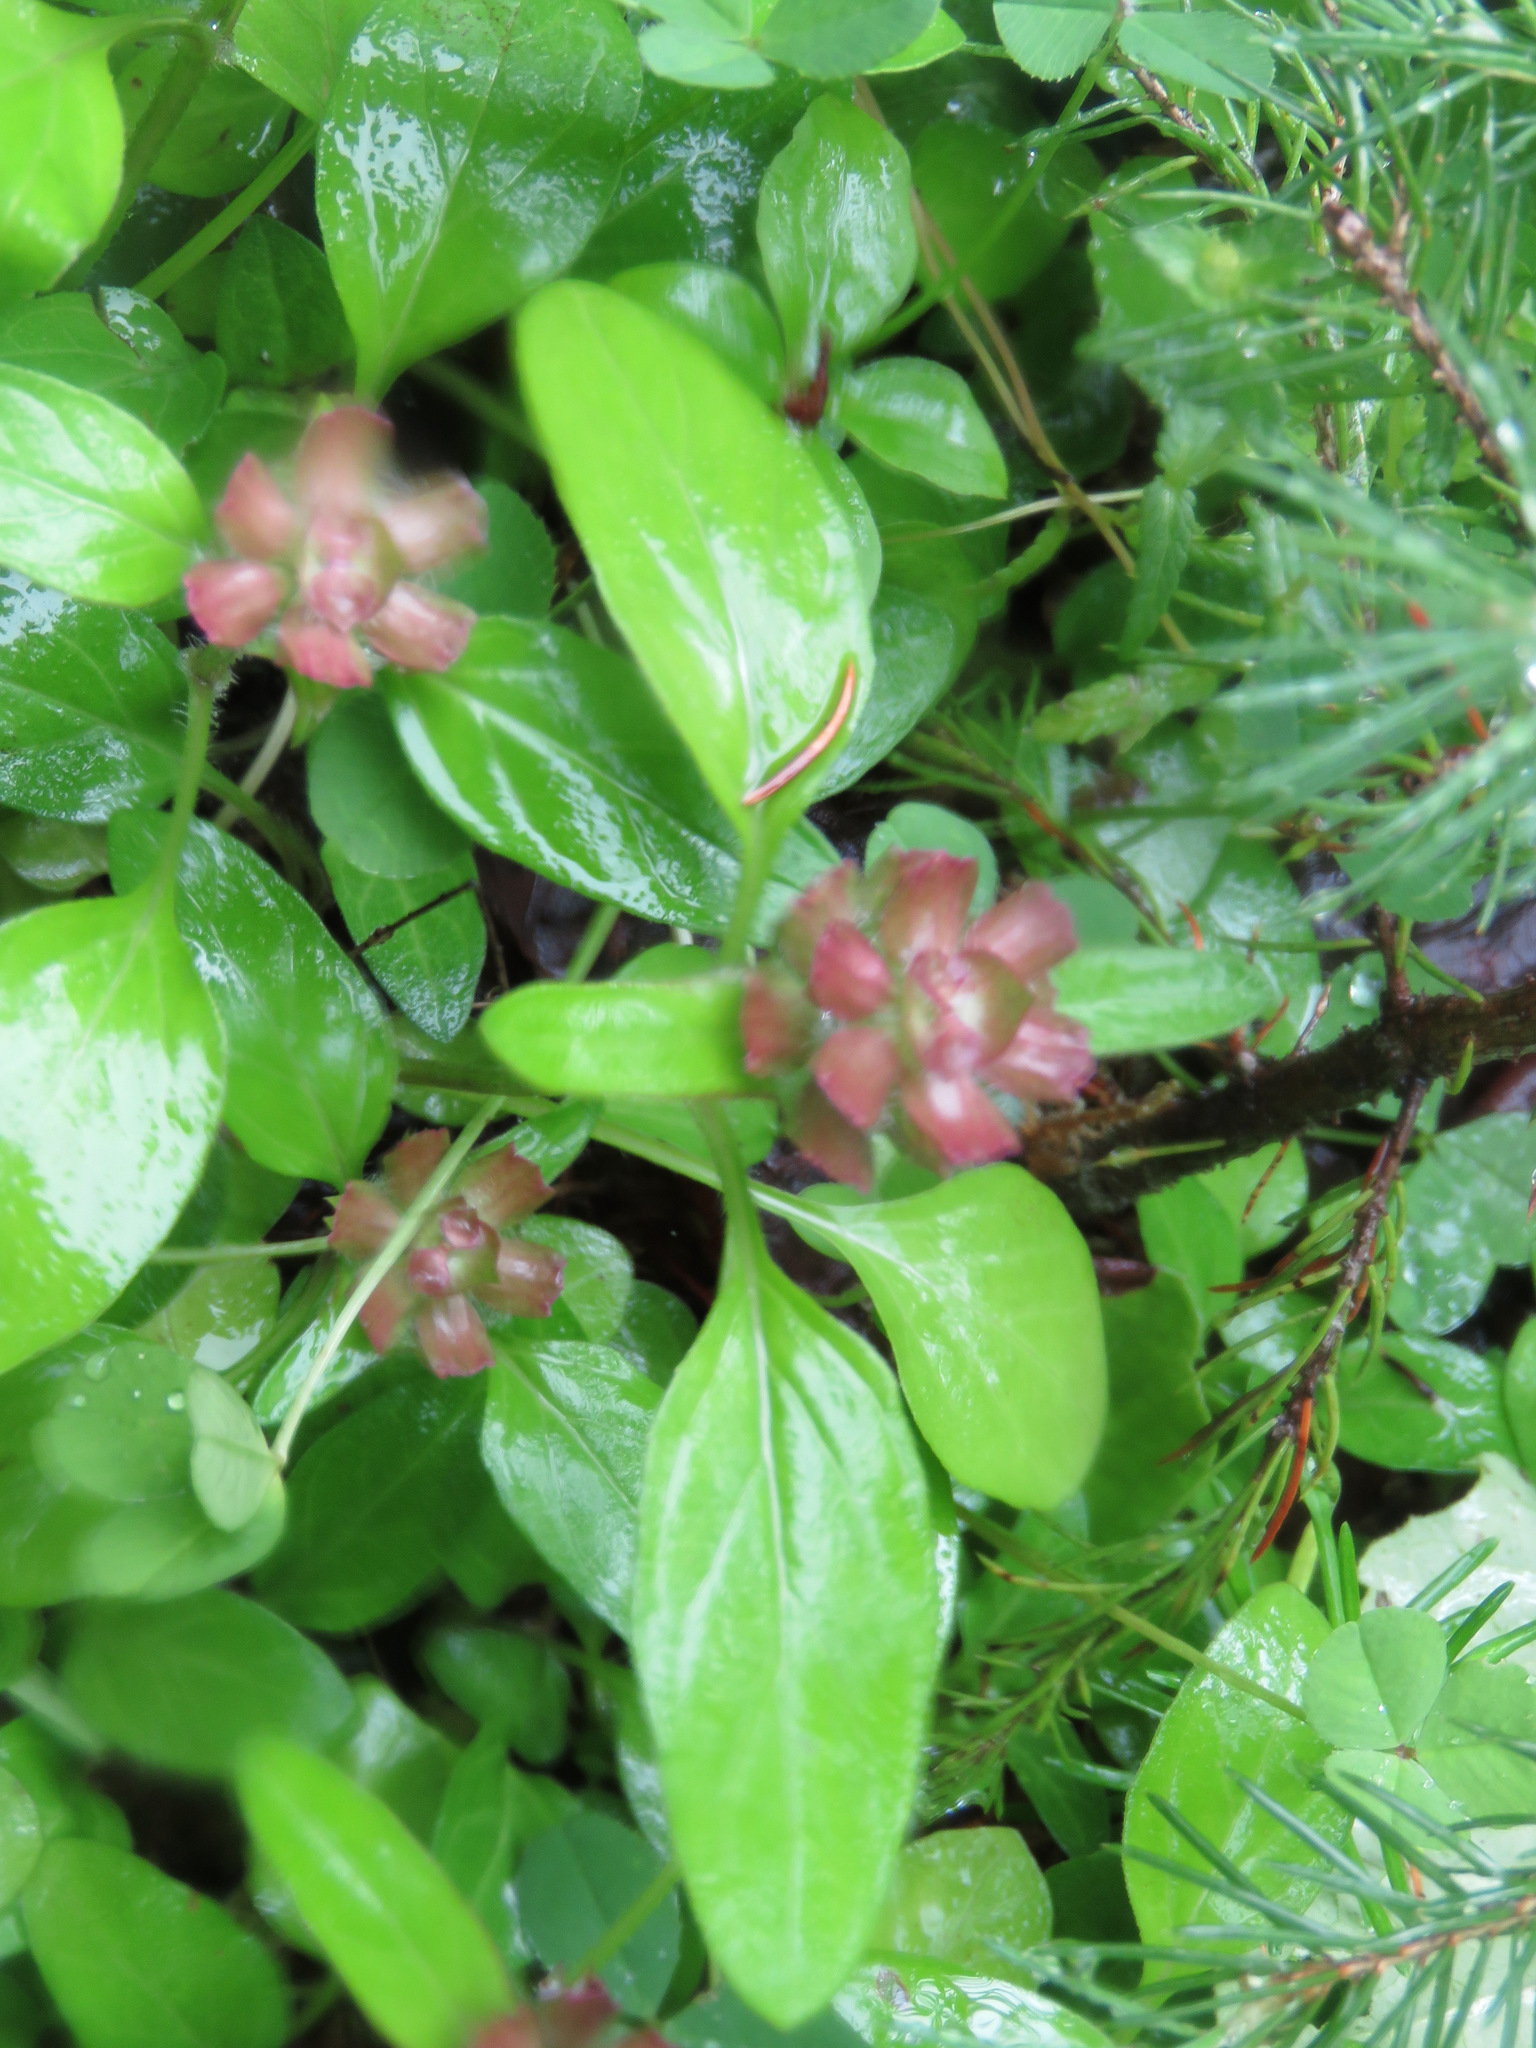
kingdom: Plantae
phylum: Tracheophyta
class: Magnoliopsida
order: Lamiales
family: Lamiaceae
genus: Prunella
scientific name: Prunella vulgaris
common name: Heal-all
